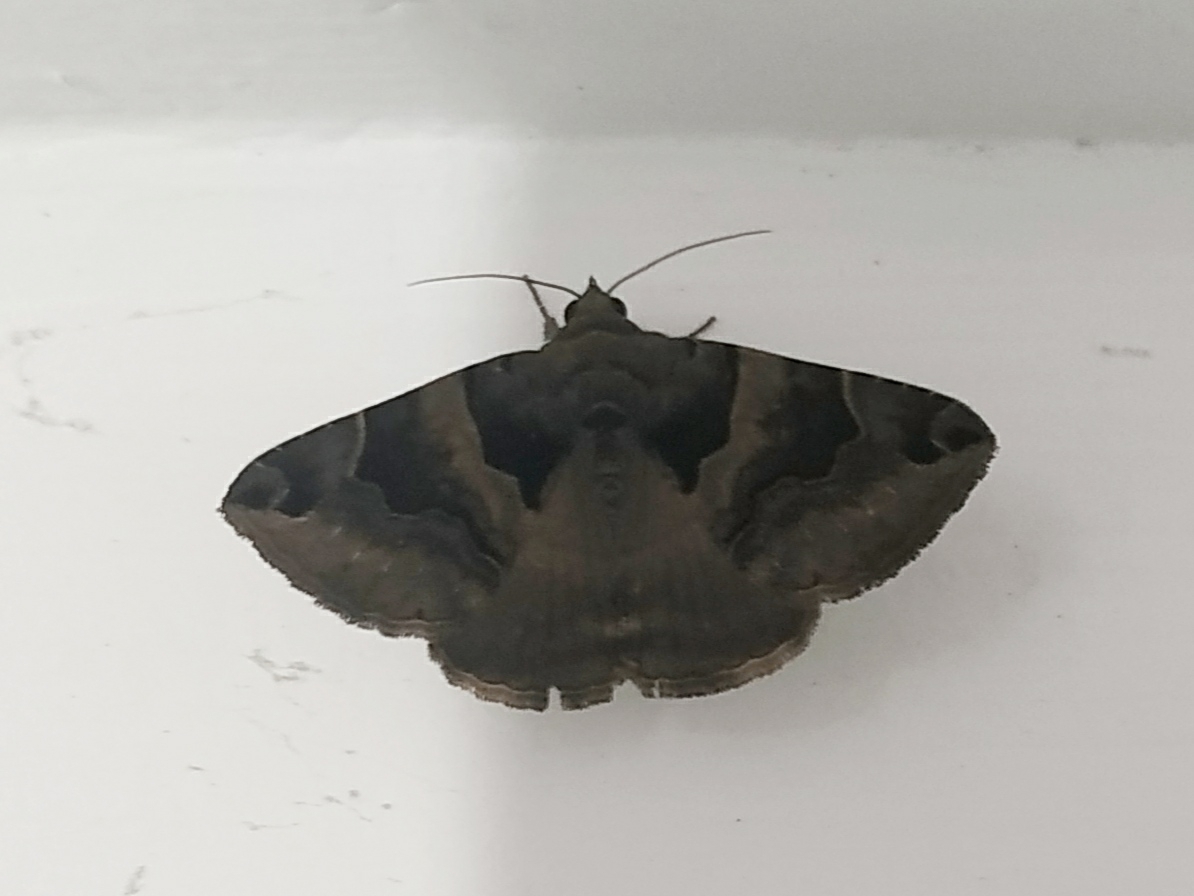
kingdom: Animalia
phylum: Arthropoda
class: Insecta
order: Lepidoptera
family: Erebidae
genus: Dysgonia
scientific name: Dysgonia simillima
